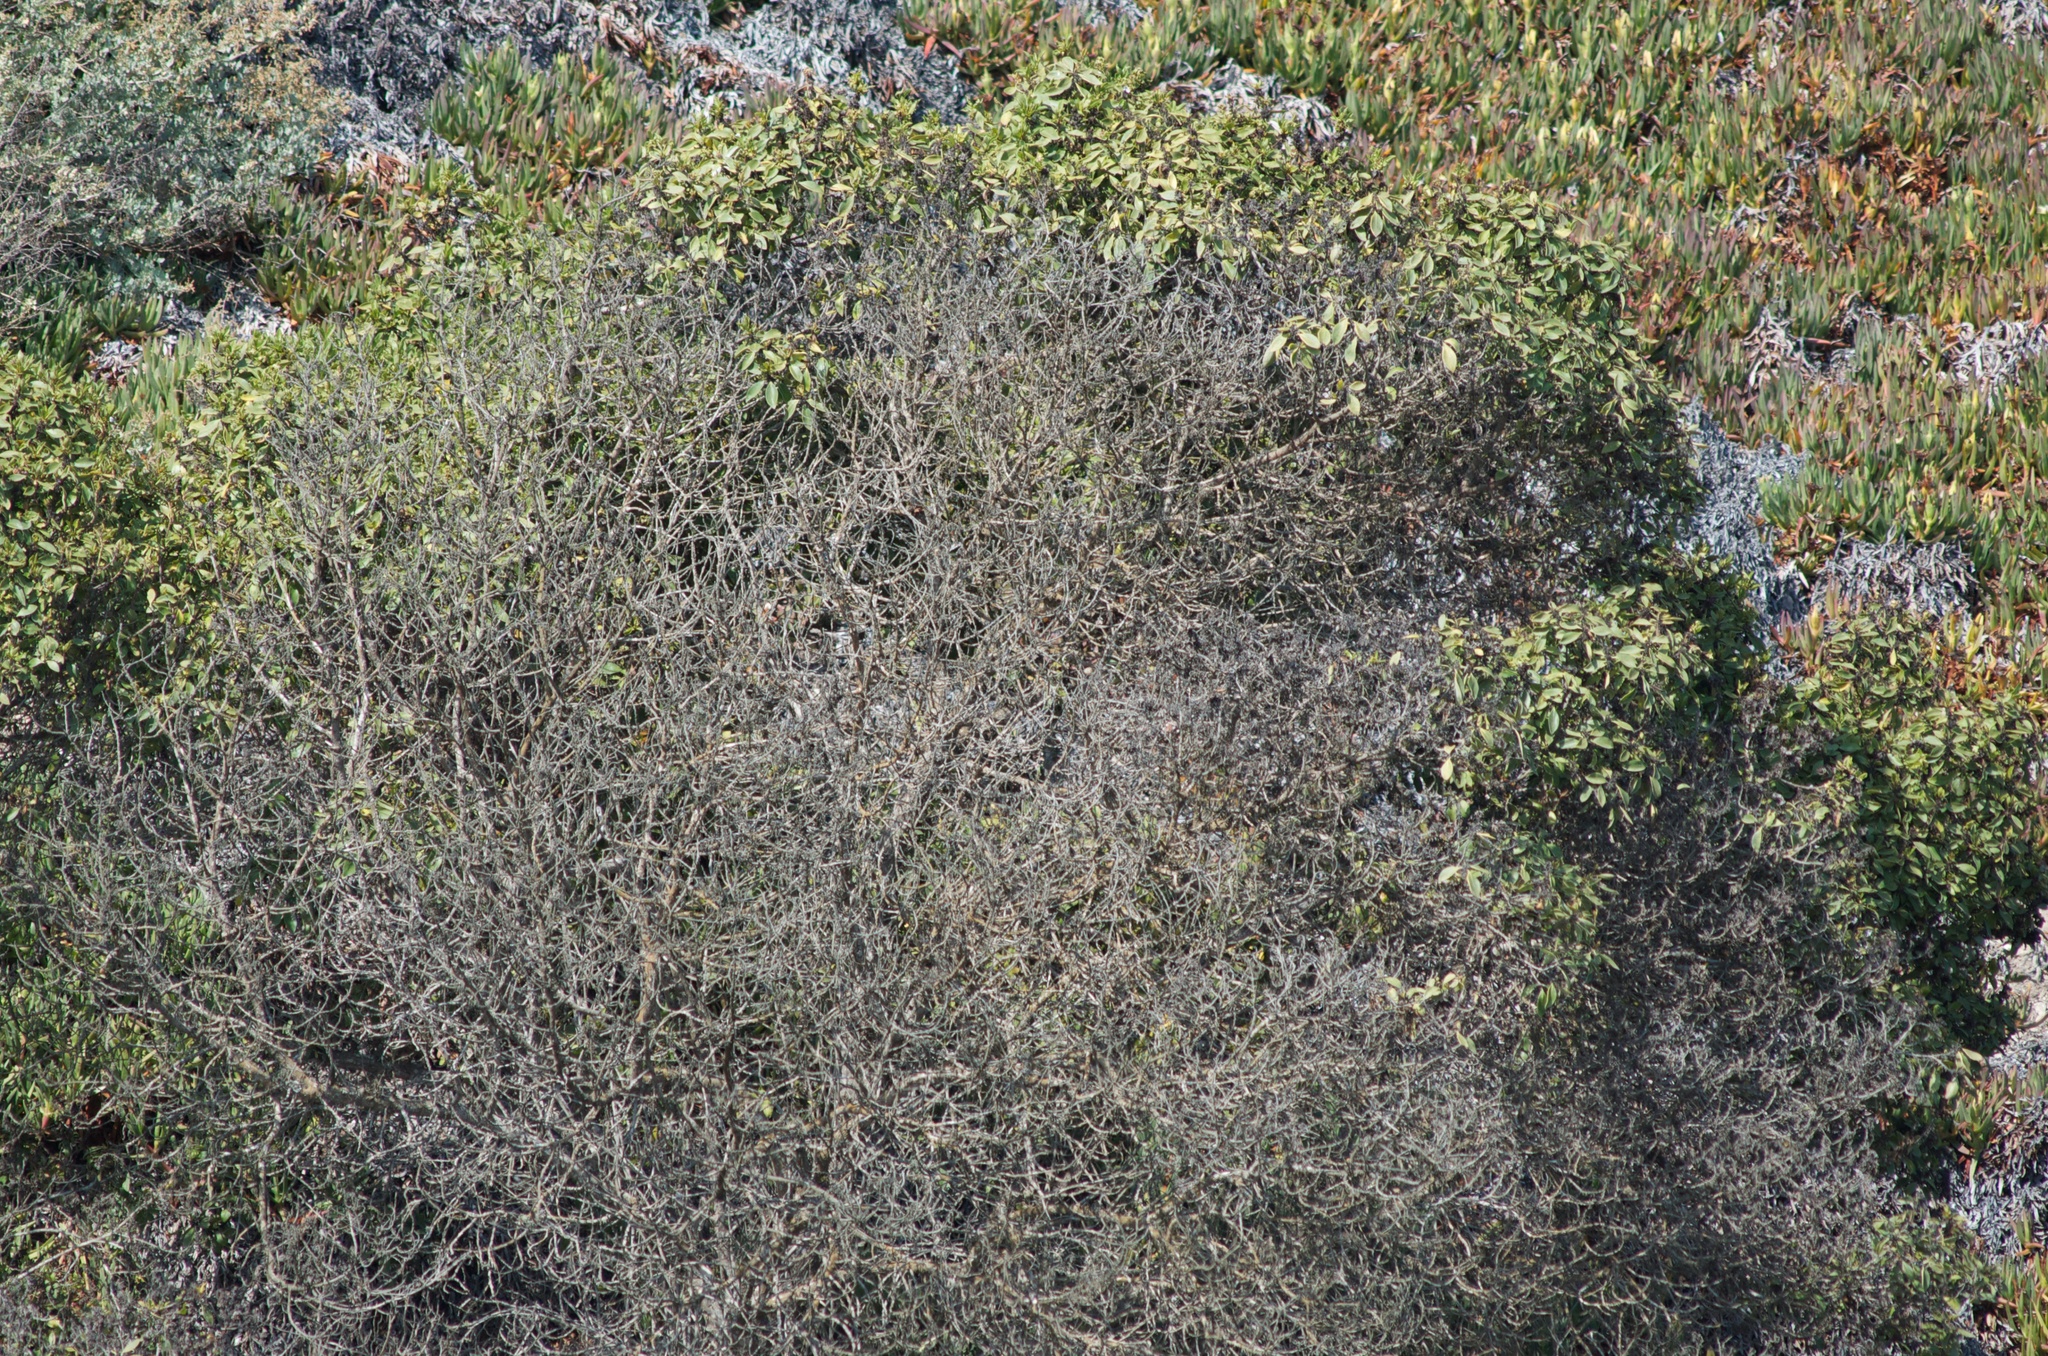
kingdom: Plantae
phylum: Tracheophyta
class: Magnoliopsida
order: Lamiales
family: Scrophulariaceae
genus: Myoporum
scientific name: Myoporum laetum
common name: Ngaio tree
